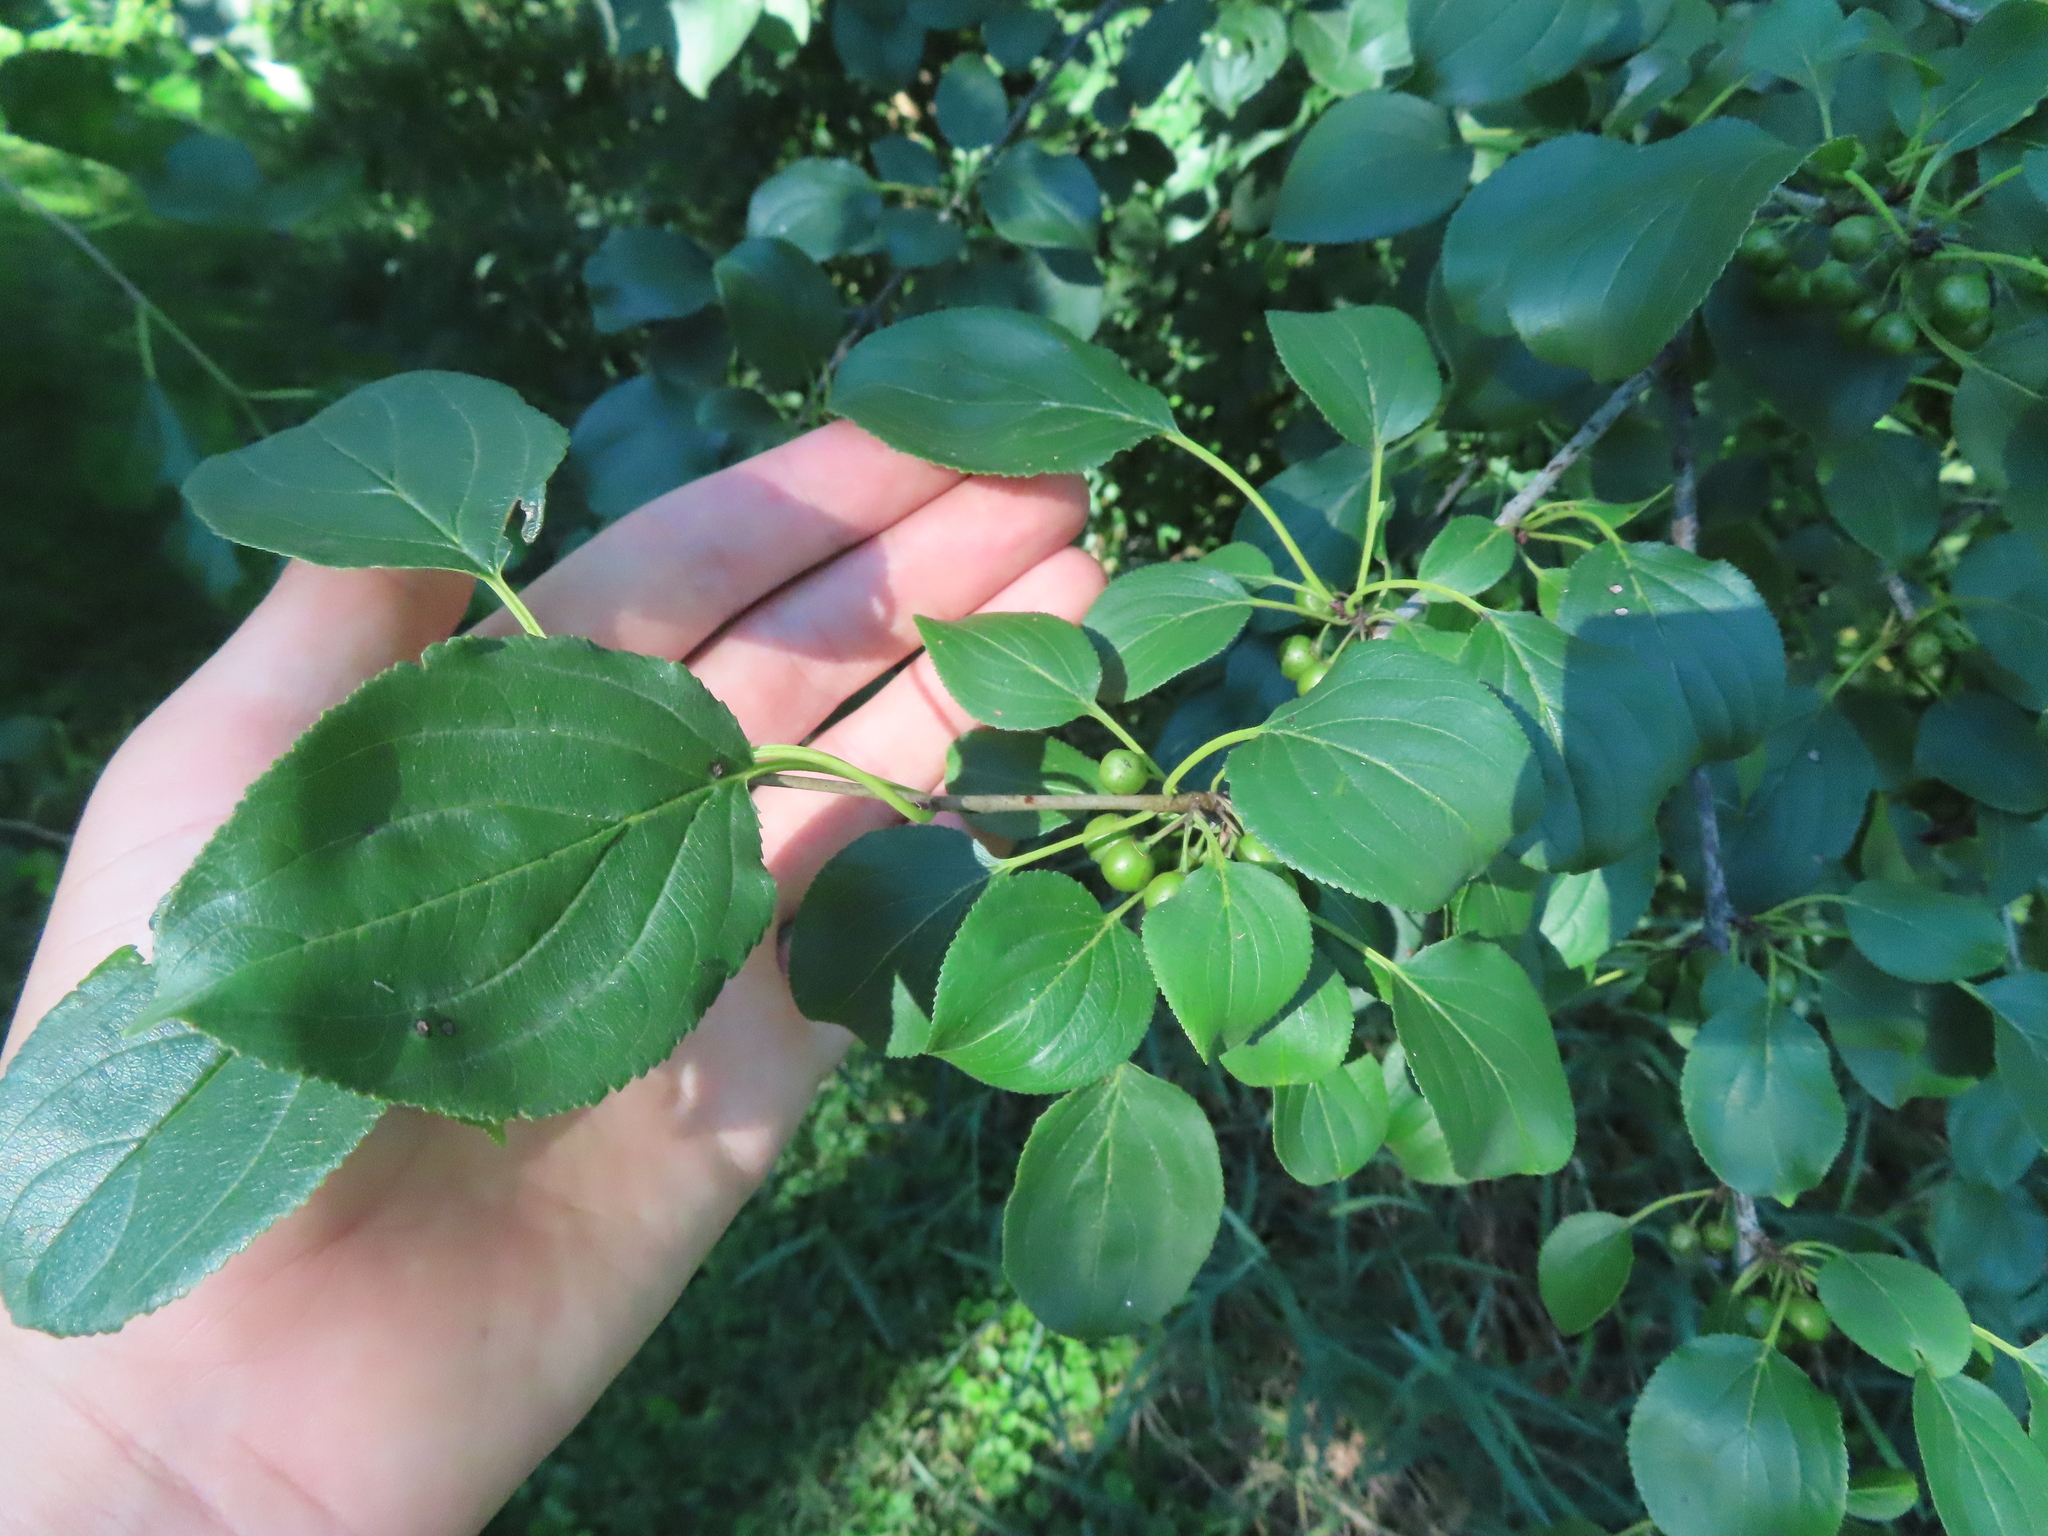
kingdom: Plantae
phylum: Tracheophyta
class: Magnoliopsida
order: Rosales
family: Rhamnaceae
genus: Rhamnus
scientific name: Rhamnus cathartica
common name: Common buckthorn
